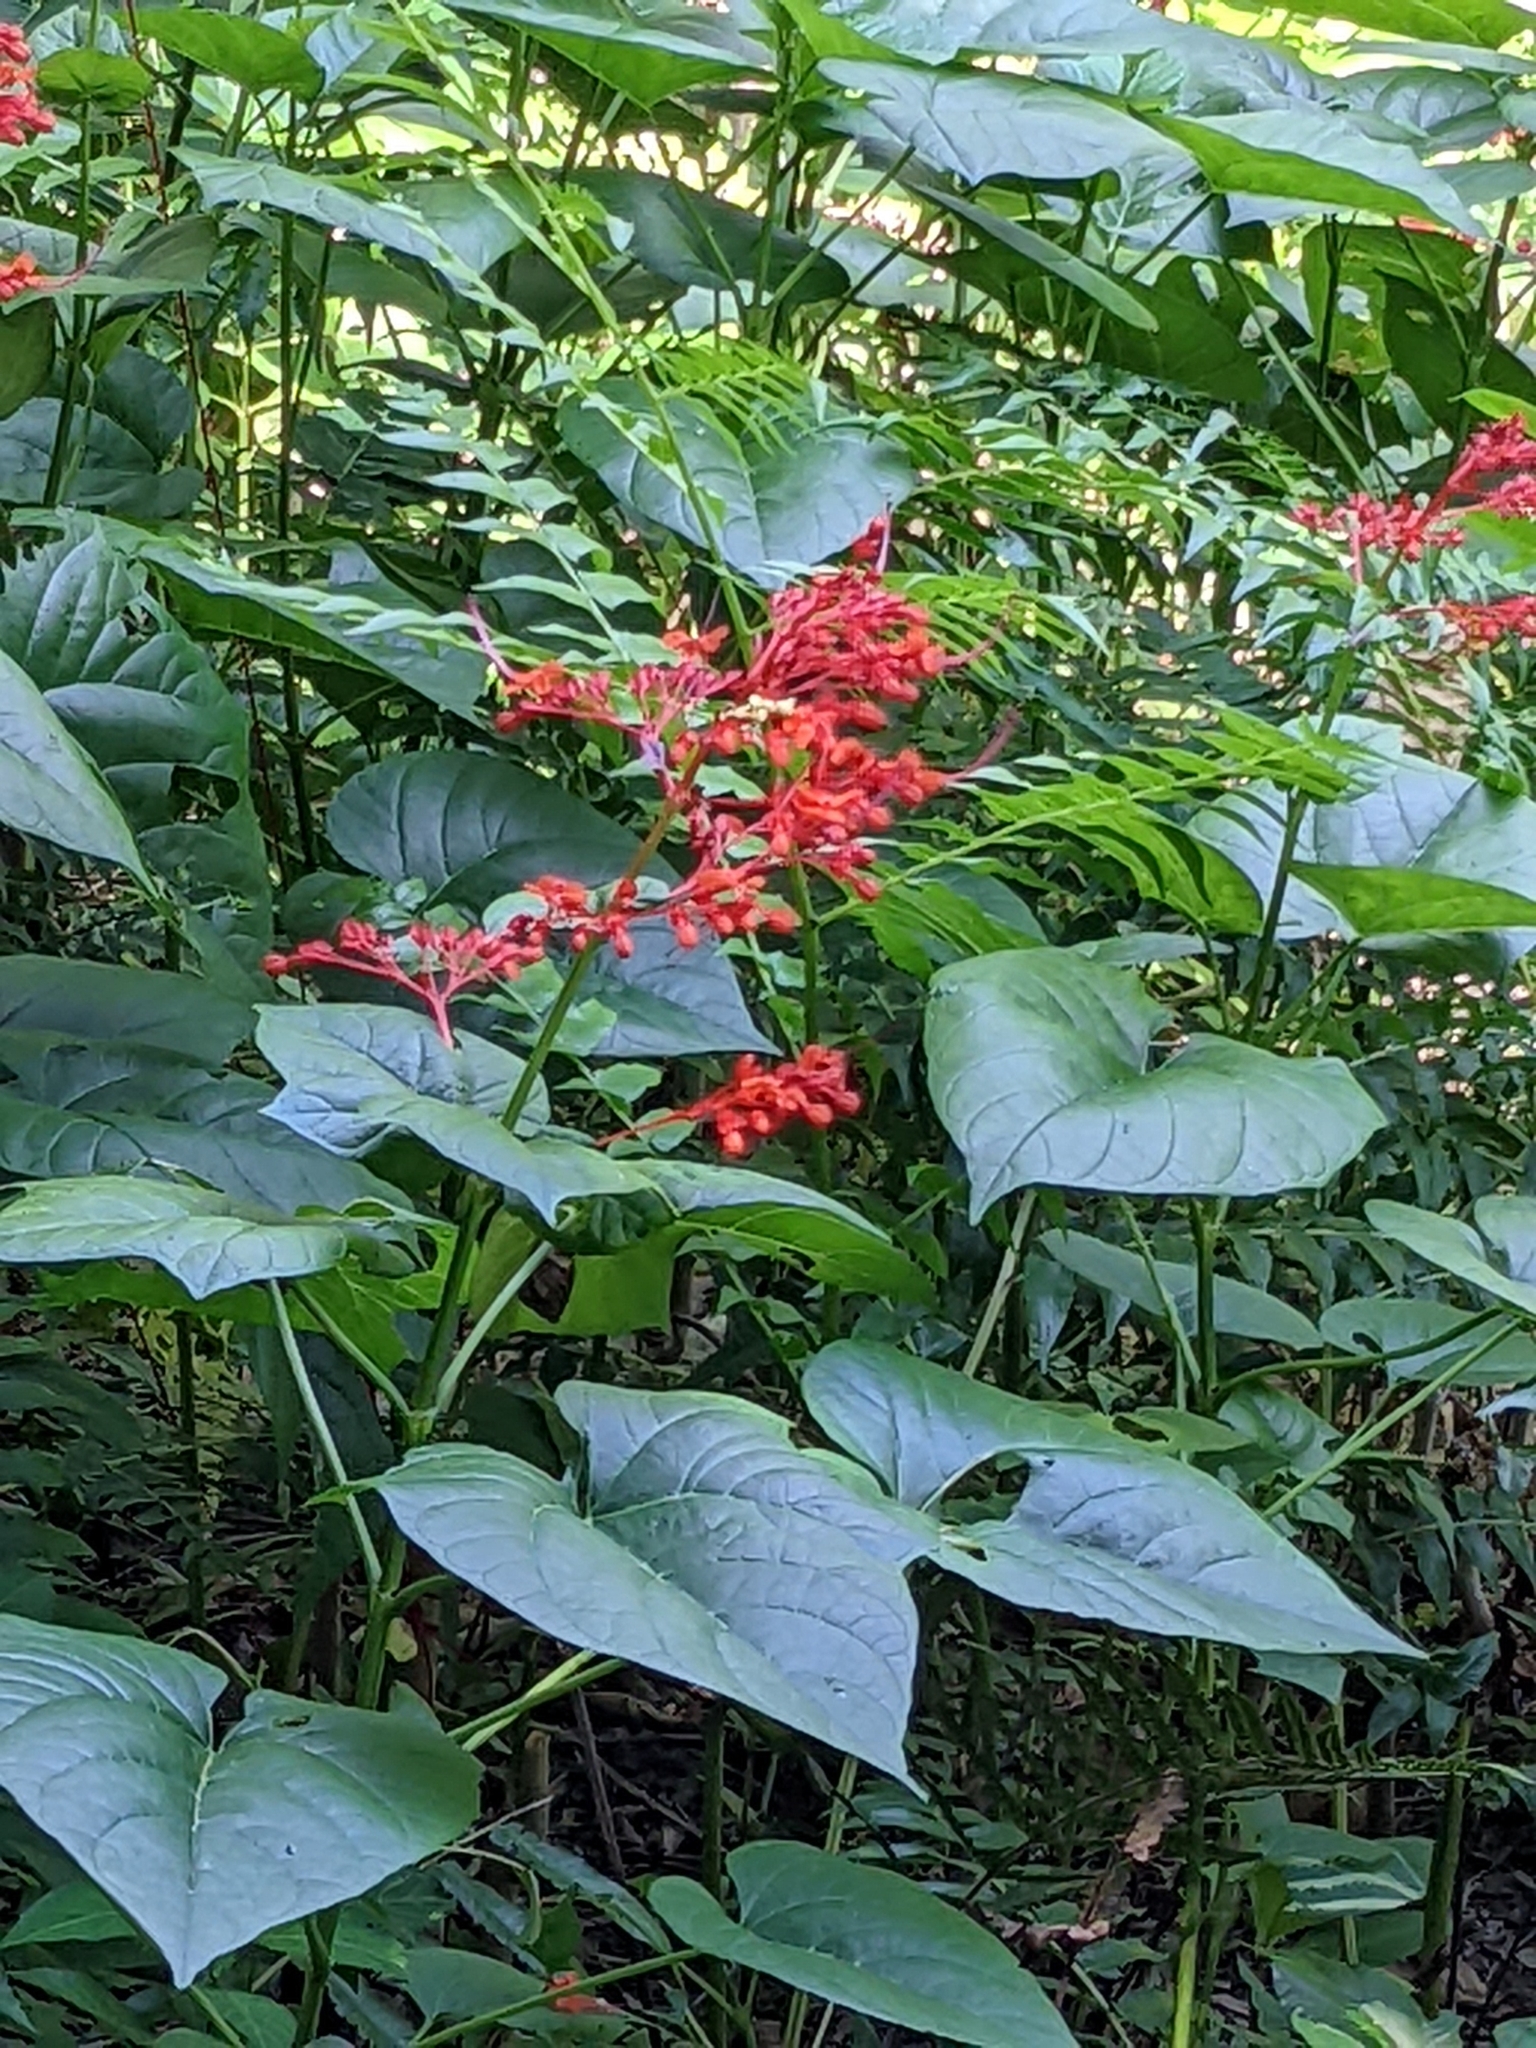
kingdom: Plantae
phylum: Tracheophyta
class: Magnoliopsida
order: Lamiales
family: Lamiaceae
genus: Clerodendrum
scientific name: Clerodendrum japonicum
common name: Japanese glorybower
